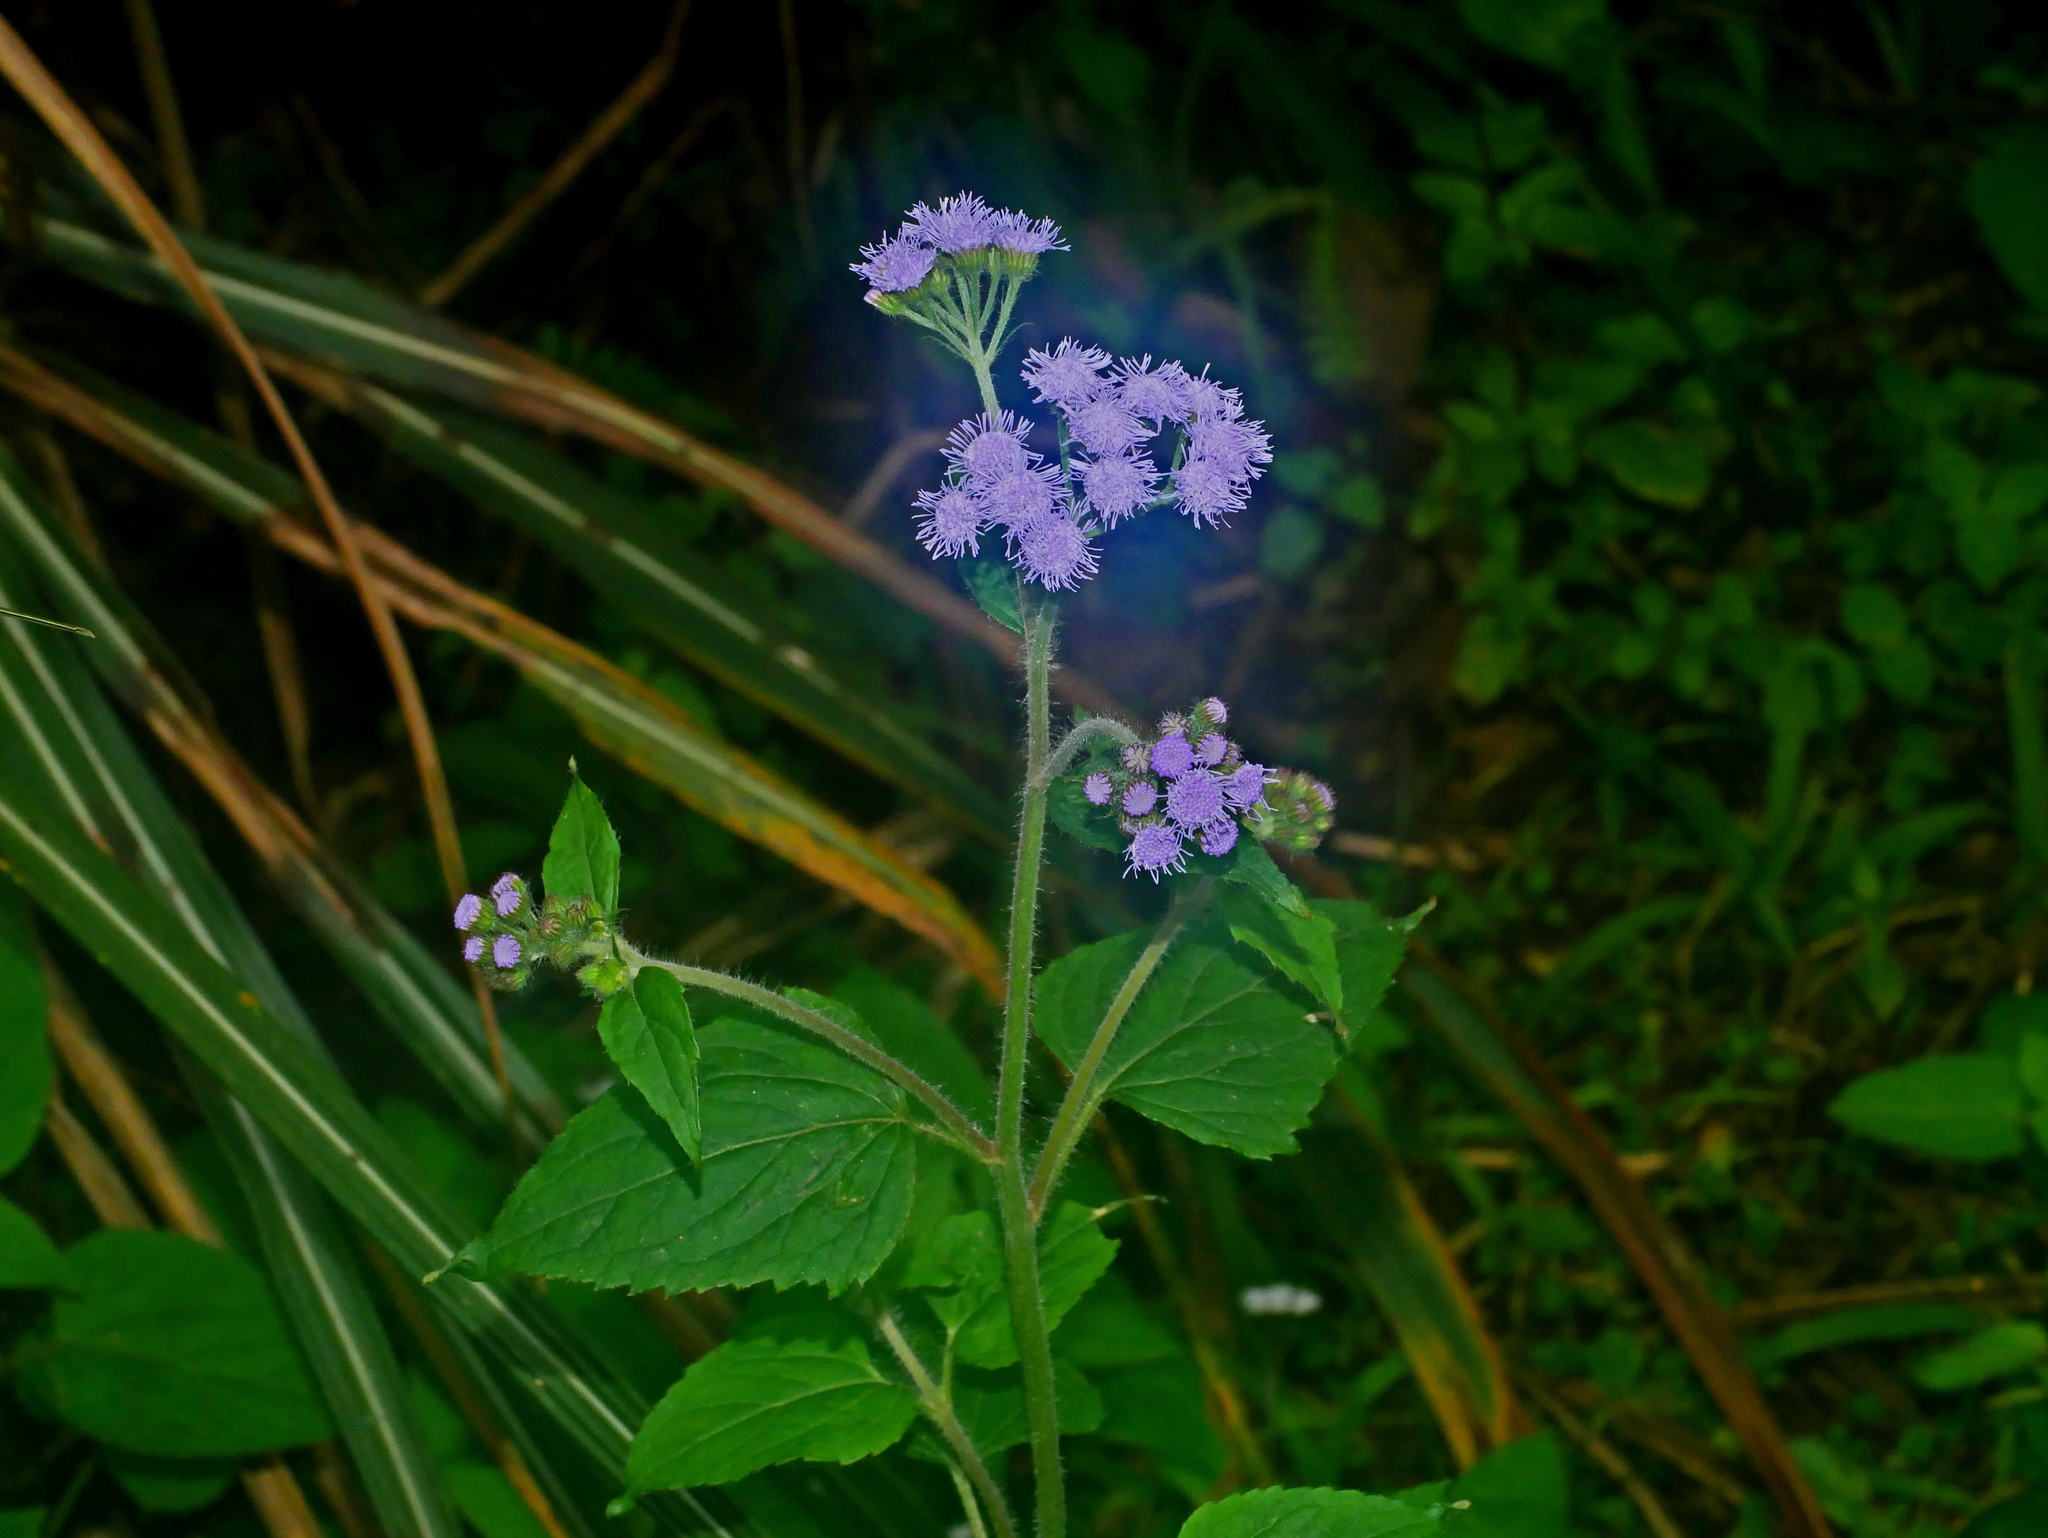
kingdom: Plantae
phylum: Tracheophyta
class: Magnoliopsida
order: Asterales
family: Asteraceae
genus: Ageratum
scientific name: Ageratum houstonianum
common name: Bluemink
